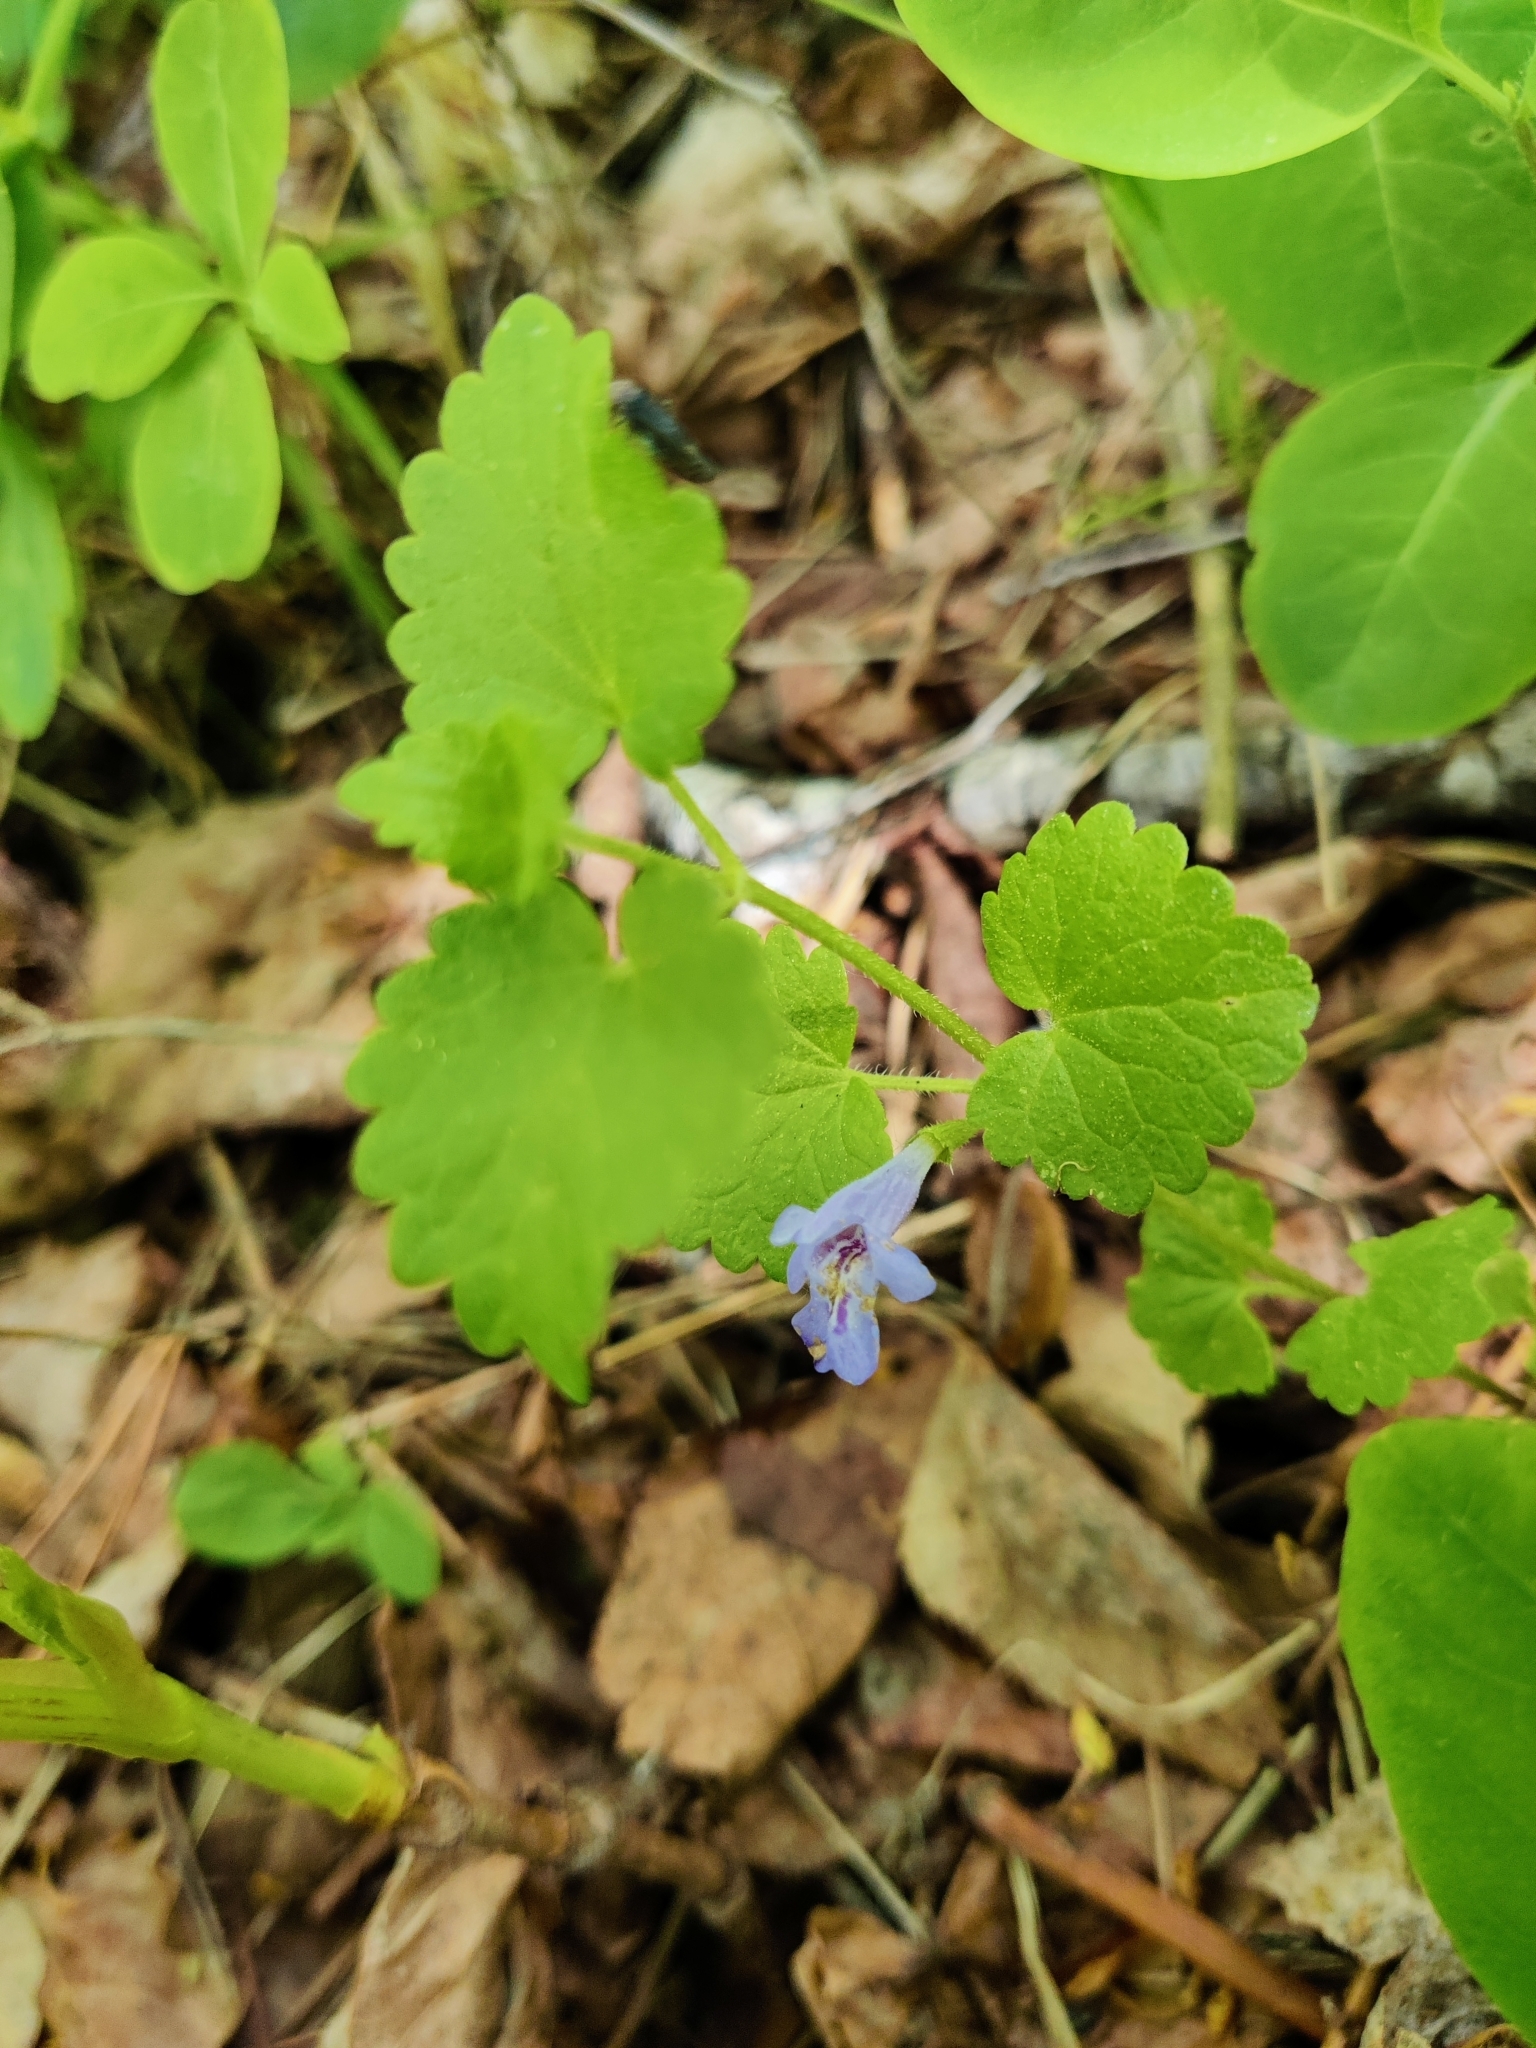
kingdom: Plantae
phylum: Tracheophyta
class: Magnoliopsida
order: Lamiales
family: Lamiaceae
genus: Glechoma
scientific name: Glechoma hederacea
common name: Ground ivy
